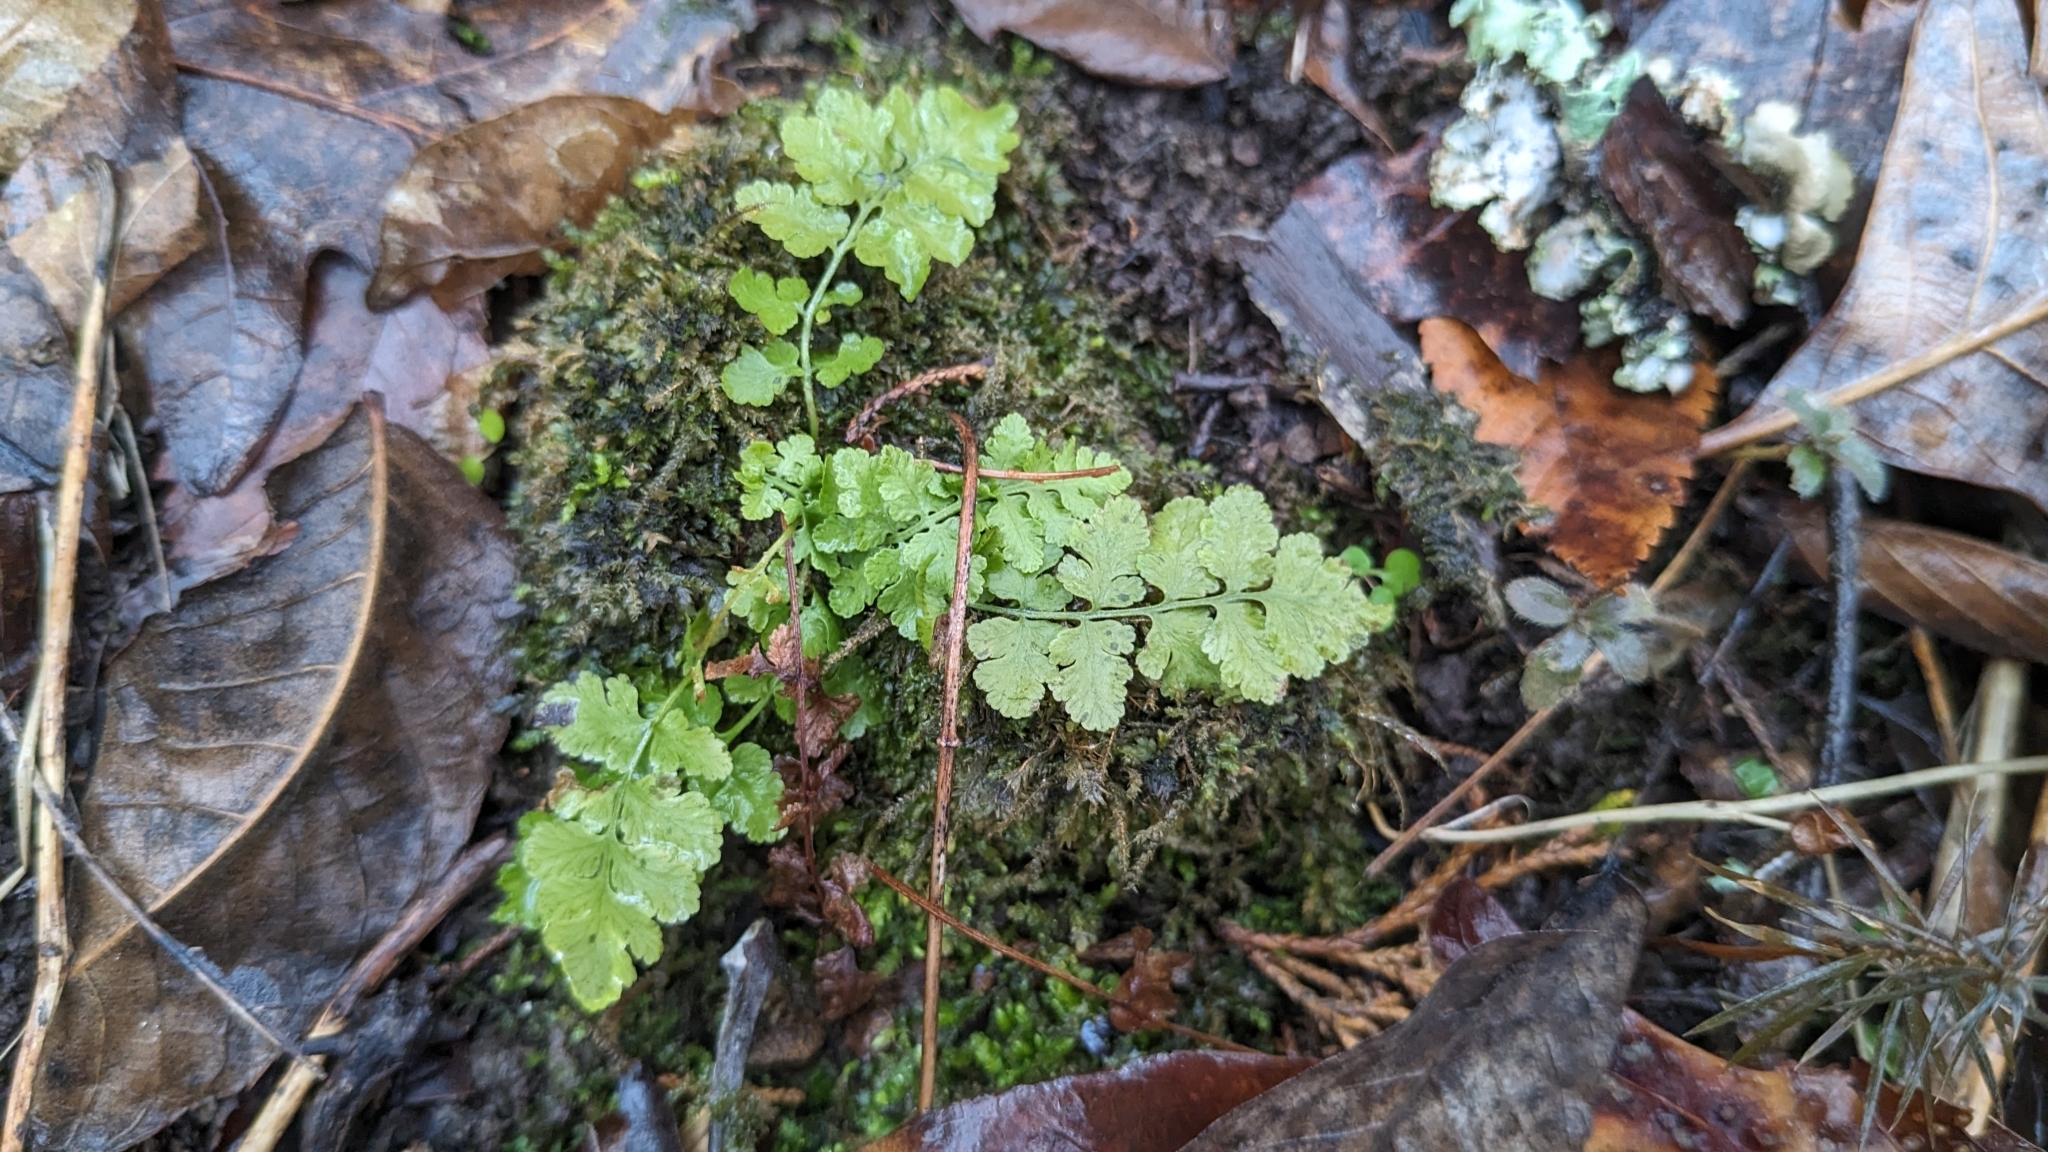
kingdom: Plantae
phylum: Tracheophyta
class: Polypodiopsida
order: Polypodiales
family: Woodsiaceae
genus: Physematium
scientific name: Physematium obtusum
